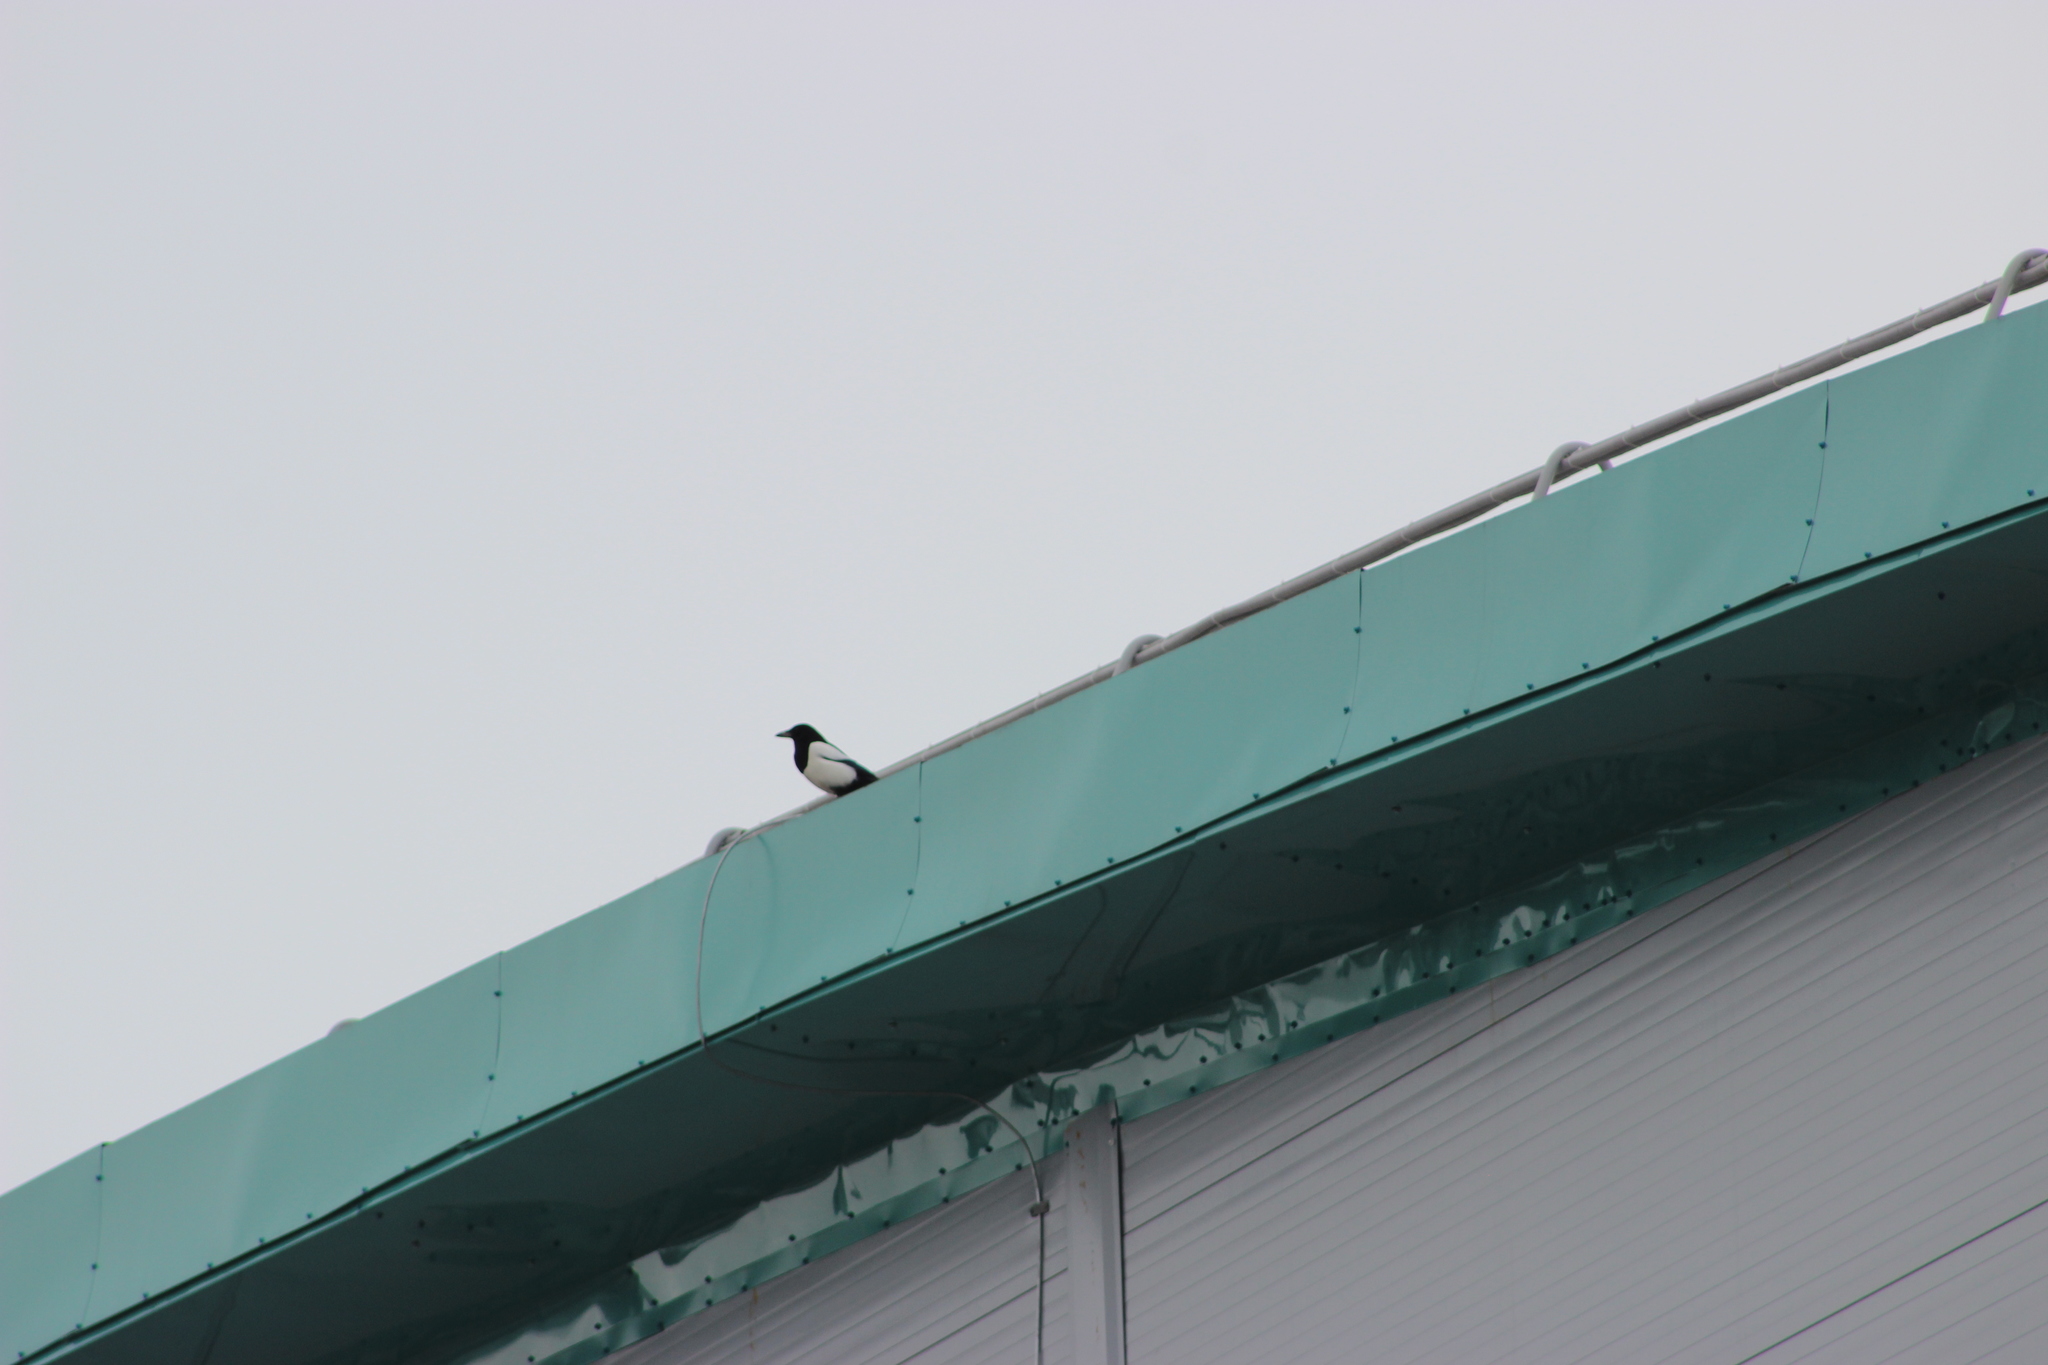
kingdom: Animalia
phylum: Chordata
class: Aves
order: Passeriformes
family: Corvidae
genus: Pica
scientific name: Pica pica
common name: Eurasian magpie
